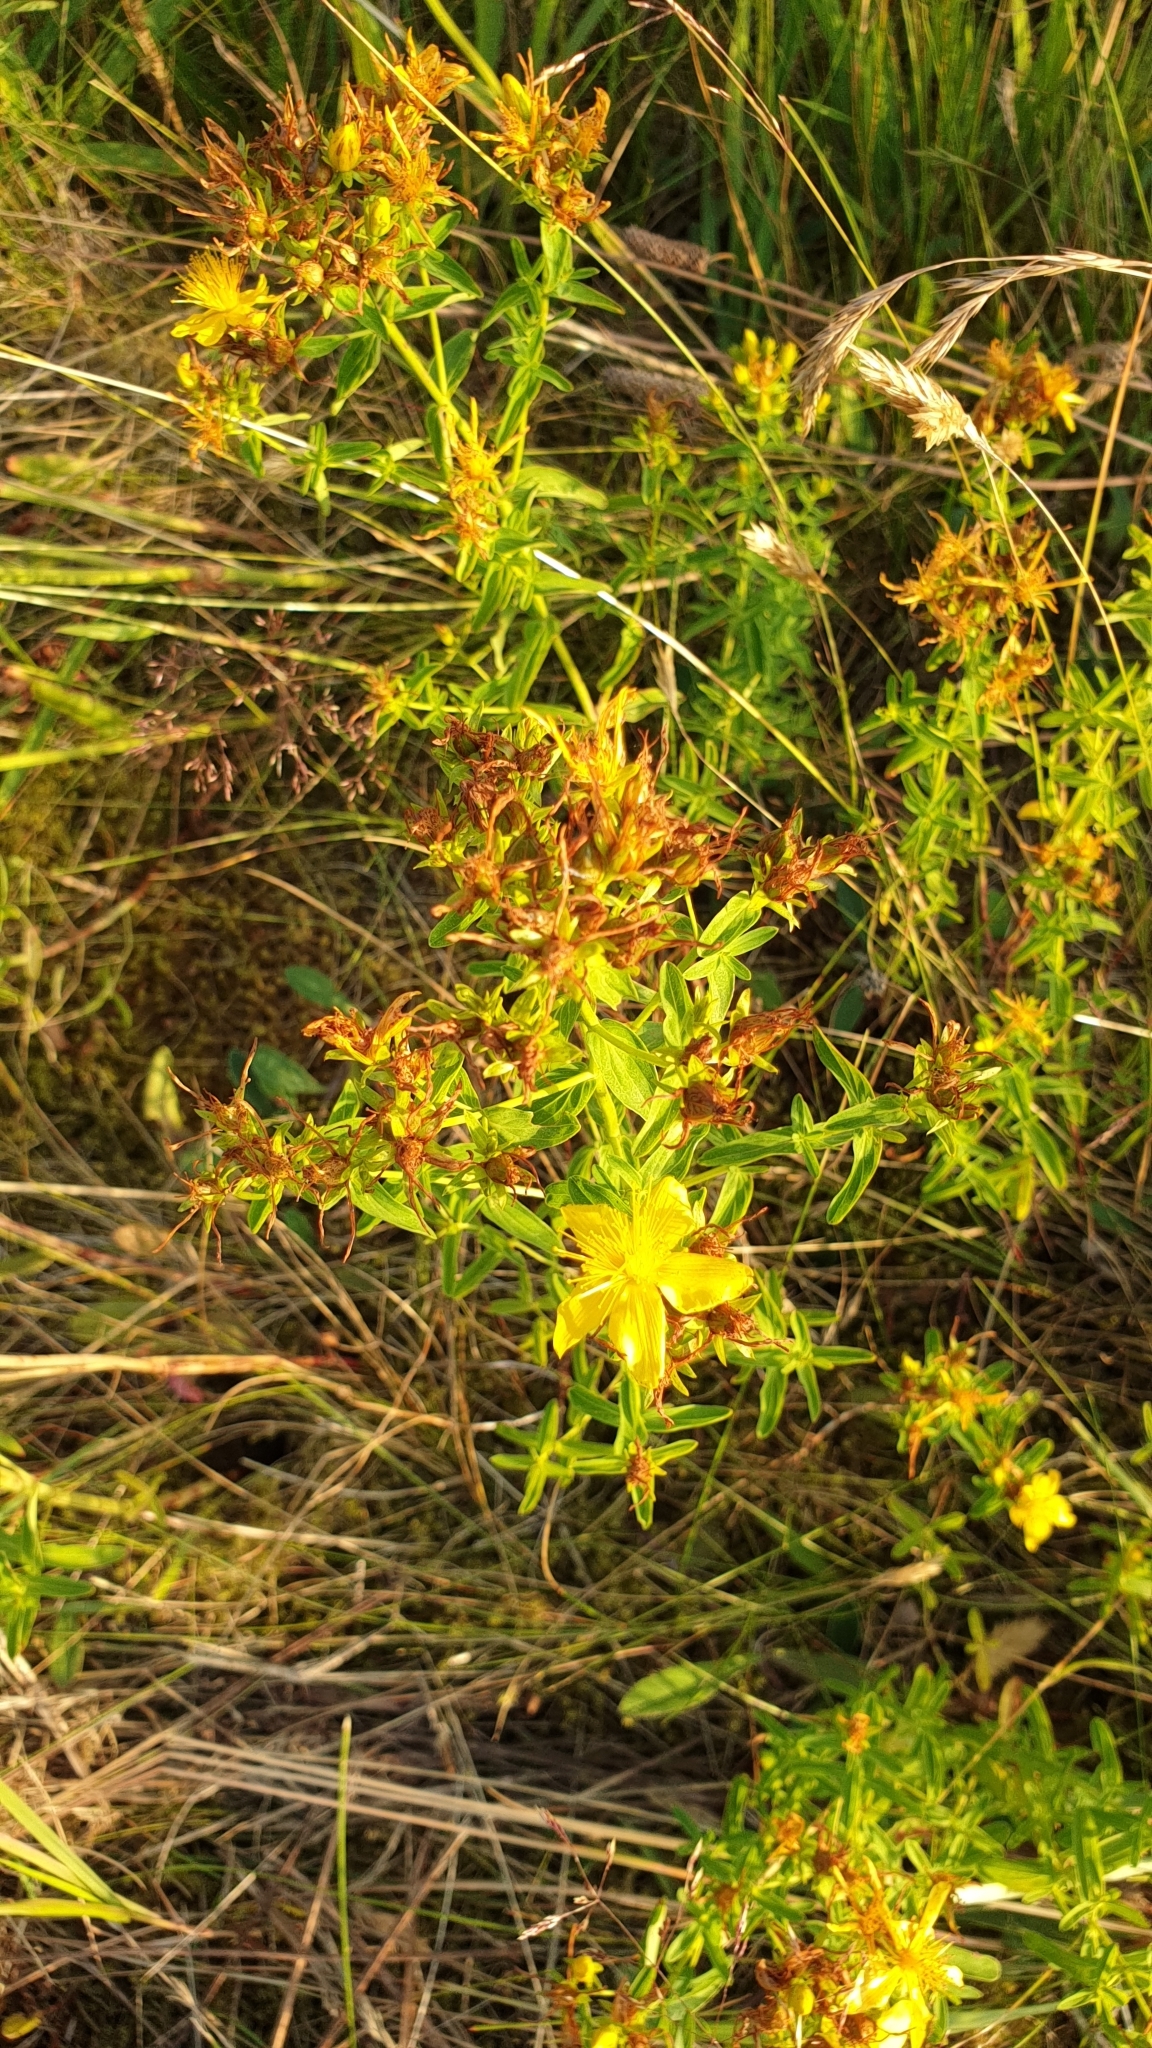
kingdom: Plantae
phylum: Tracheophyta
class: Magnoliopsida
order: Malpighiales
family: Hypericaceae
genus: Hypericum
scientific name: Hypericum perforatum
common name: Common st. johnswort
